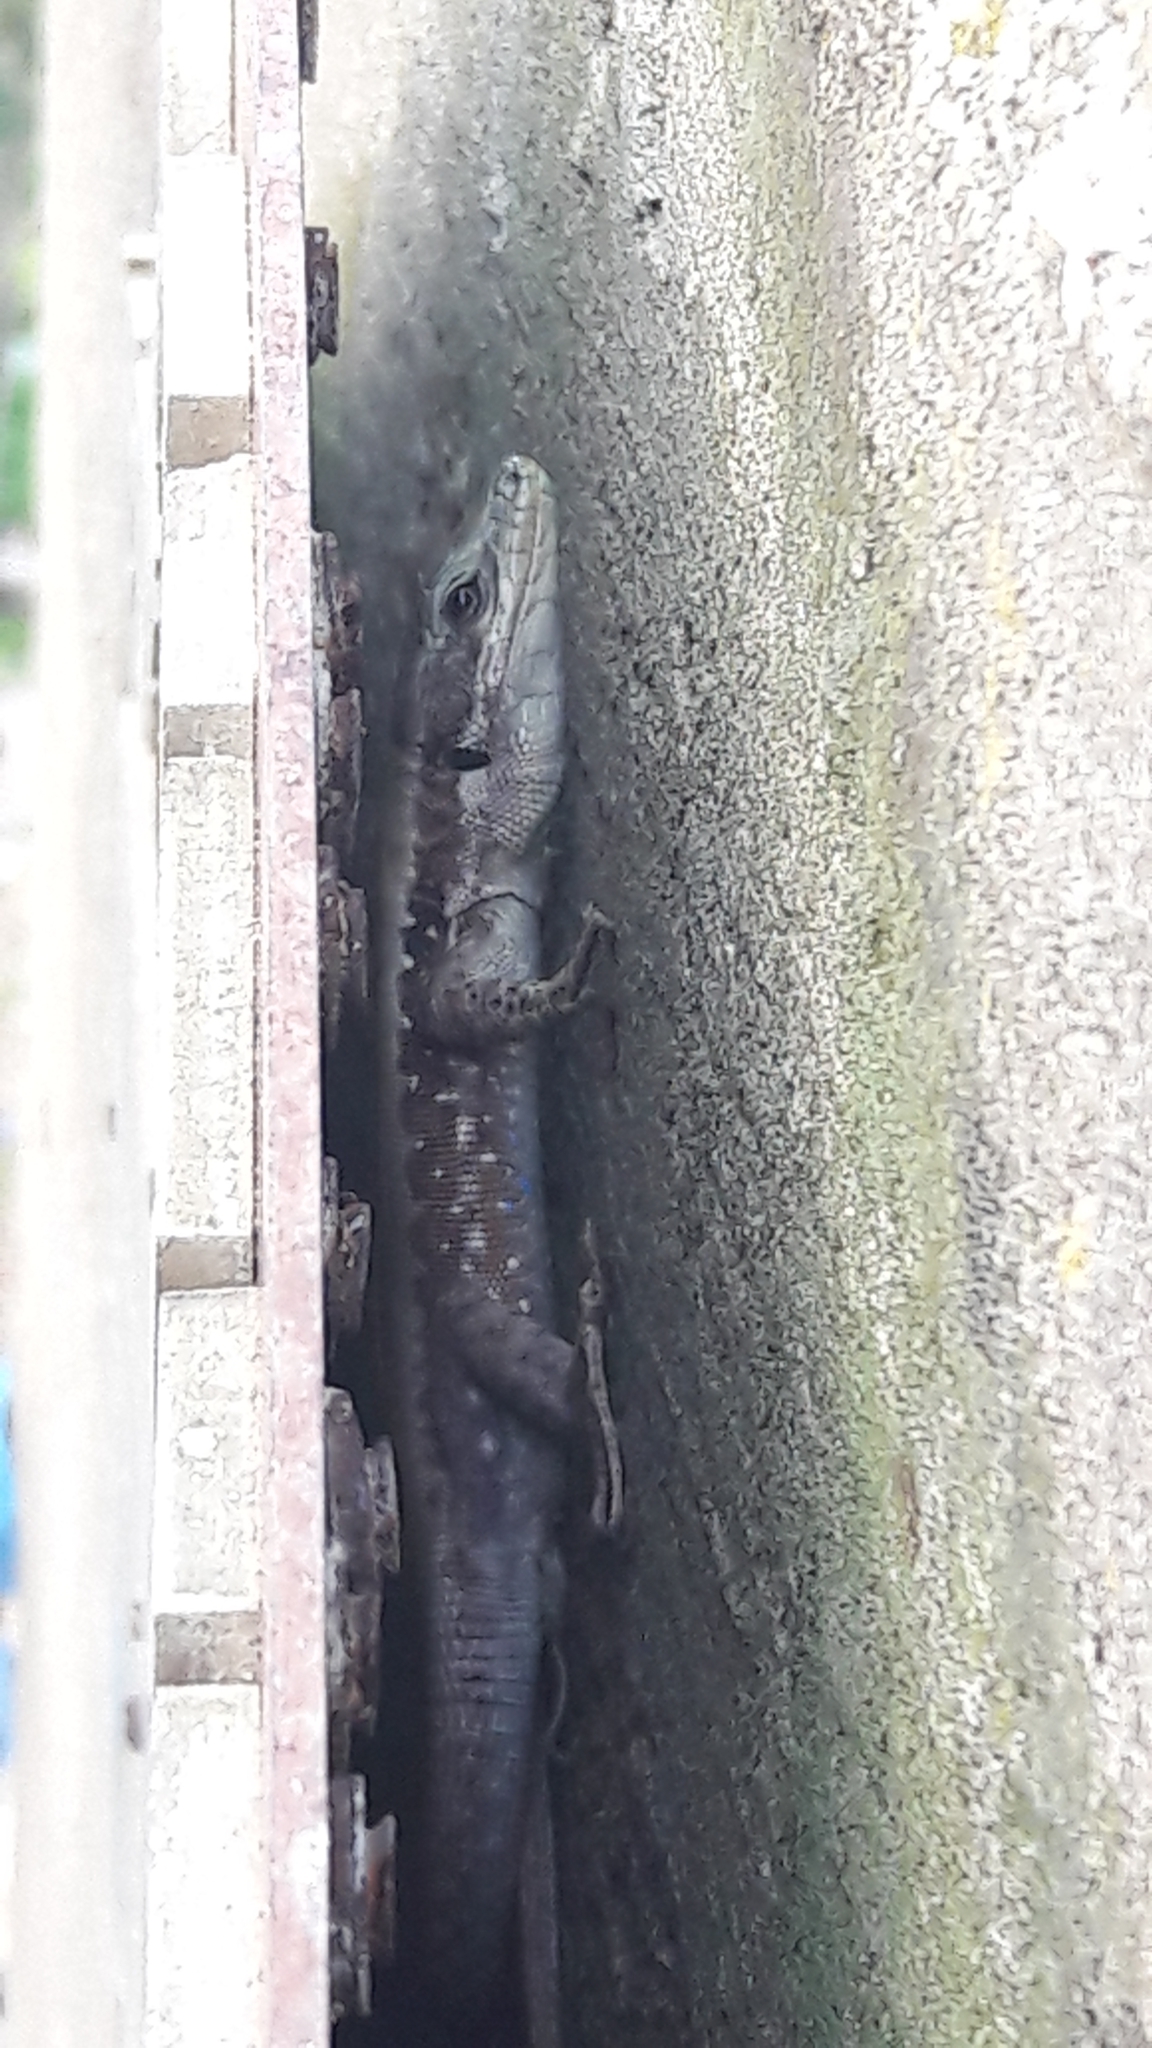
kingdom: Animalia
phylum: Chordata
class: Squamata
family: Lacertidae
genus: Phoenicolacerta
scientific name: Phoenicolacerta laevis
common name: Lebanon lizard
